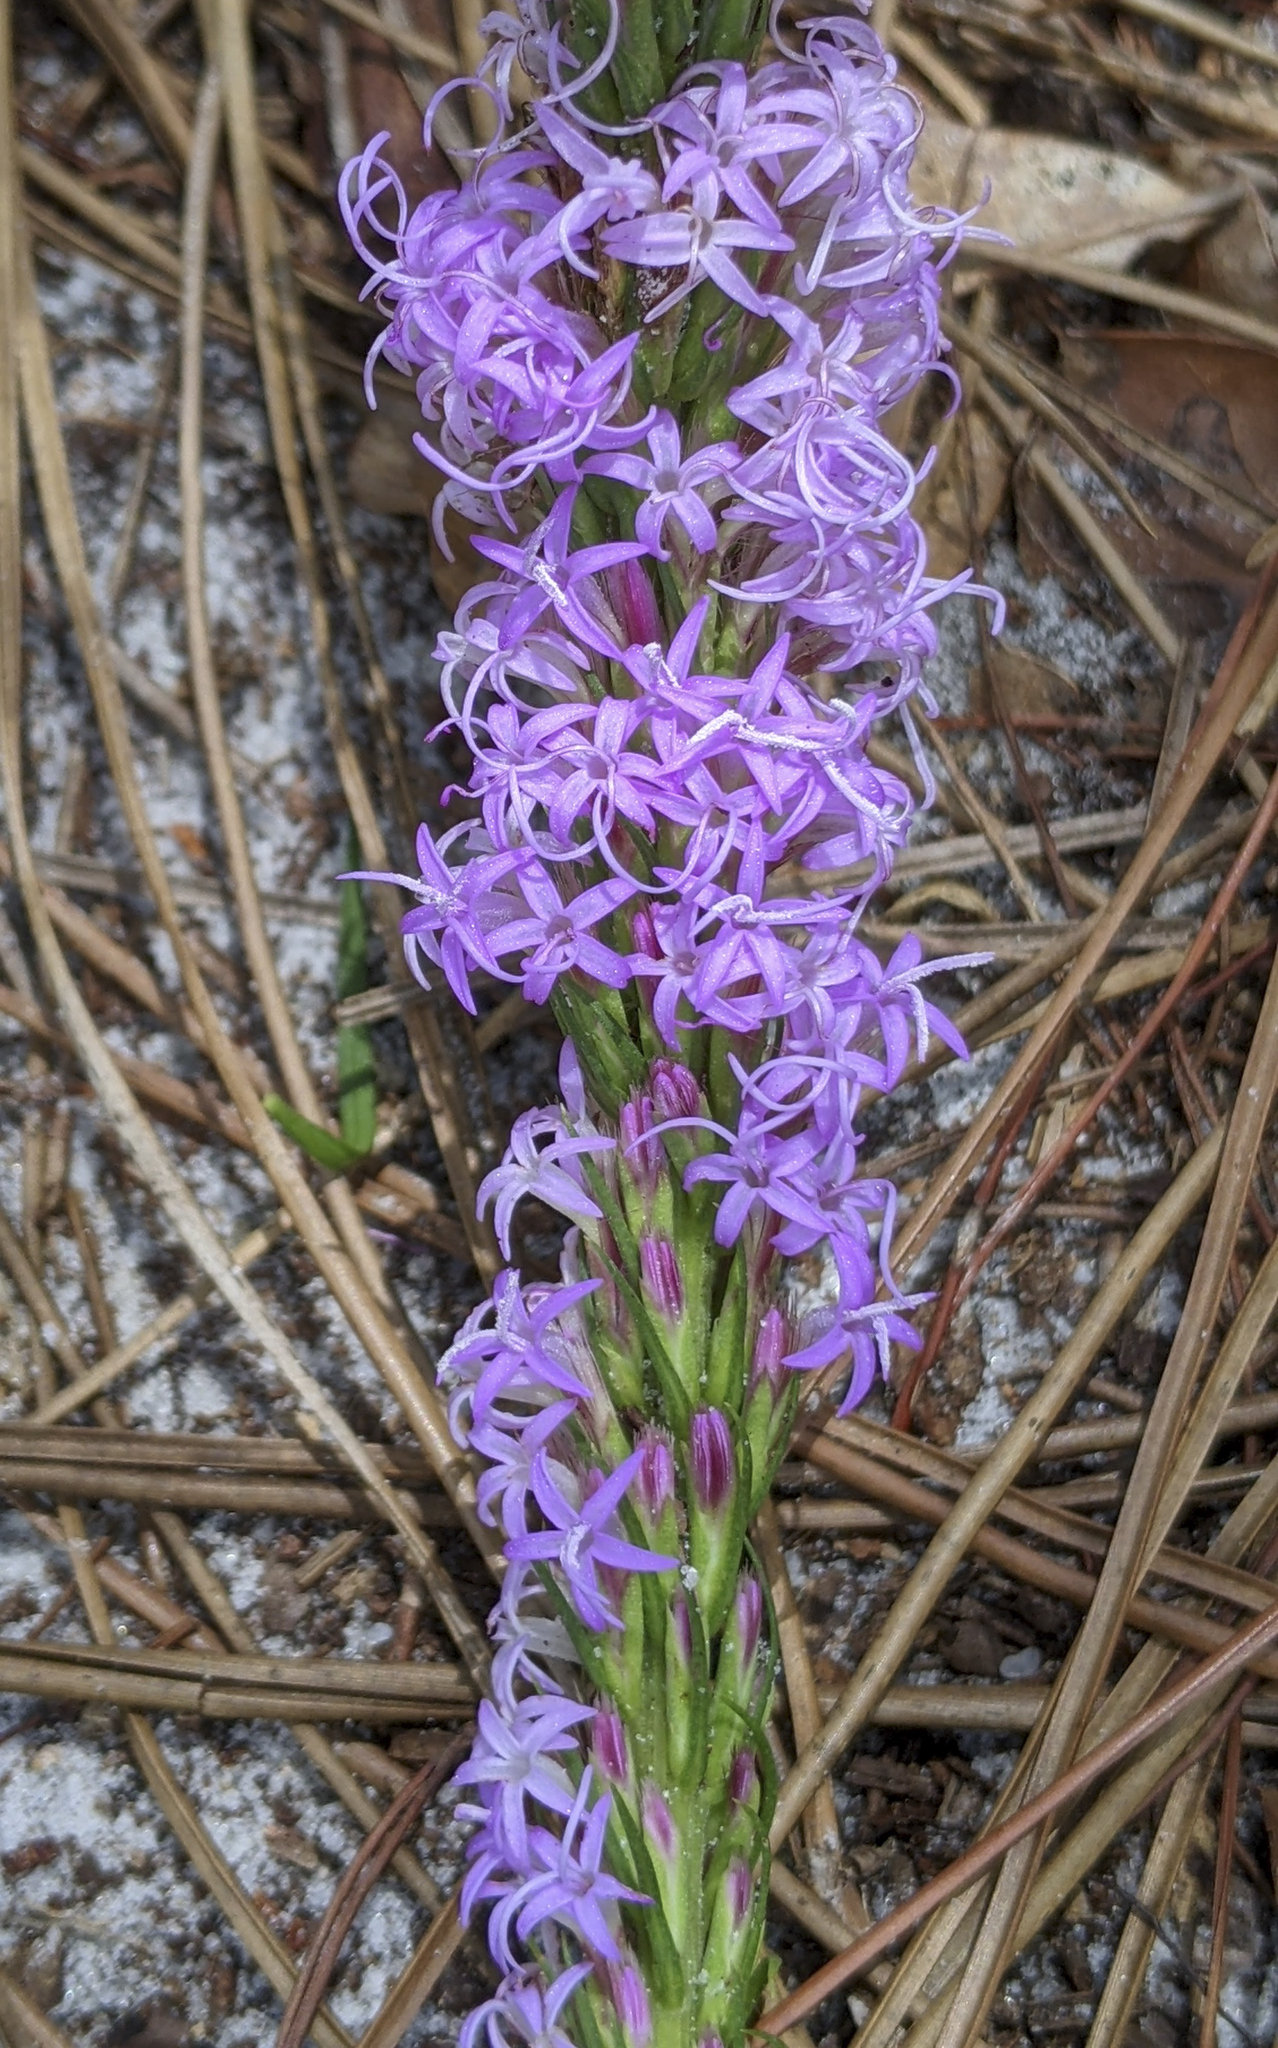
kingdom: Plantae
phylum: Tracheophyta
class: Magnoliopsida
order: Asterales
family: Asteraceae
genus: Liatris
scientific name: Liatris chapmanii
